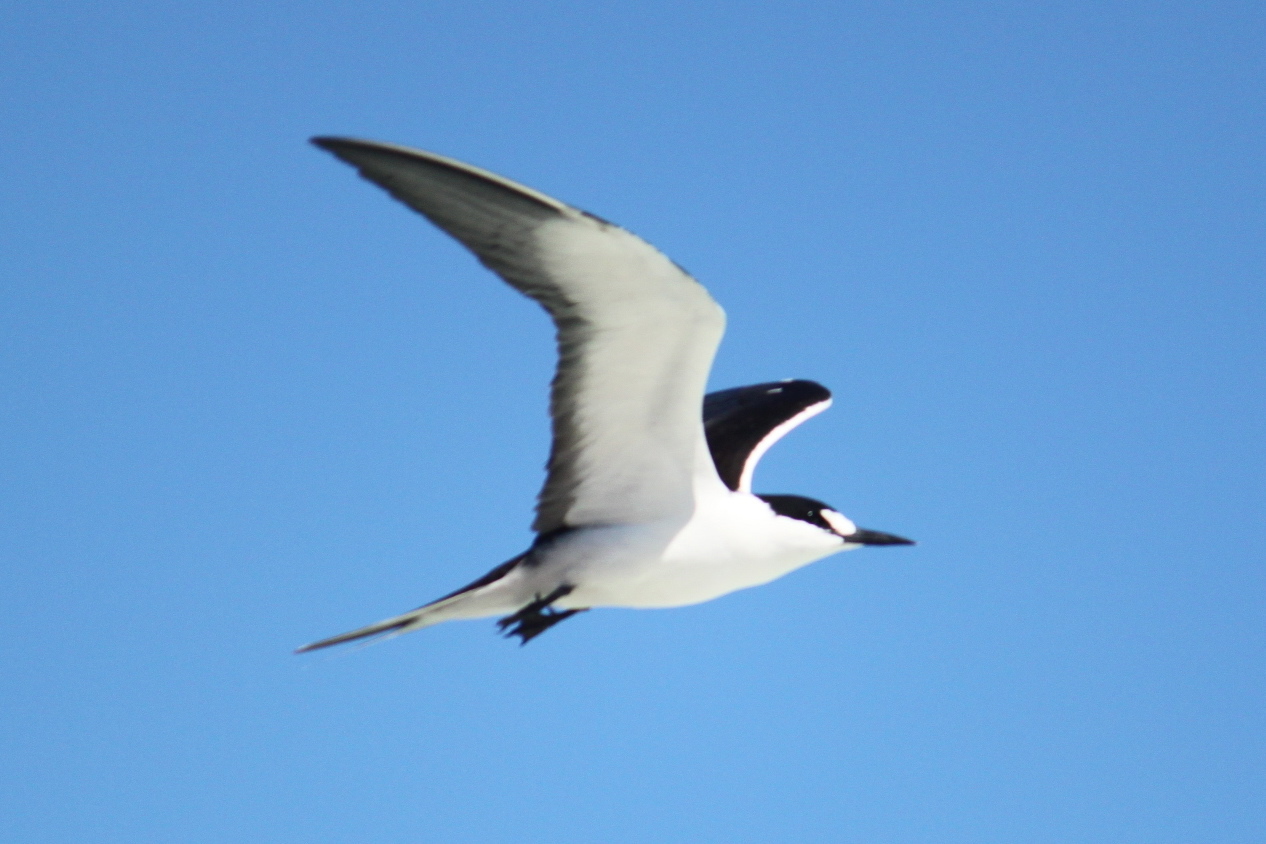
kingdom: Animalia
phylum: Chordata
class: Aves
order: Charadriiformes
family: Laridae
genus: Onychoprion
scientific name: Onychoprion fuscatus
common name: Sooty tern
